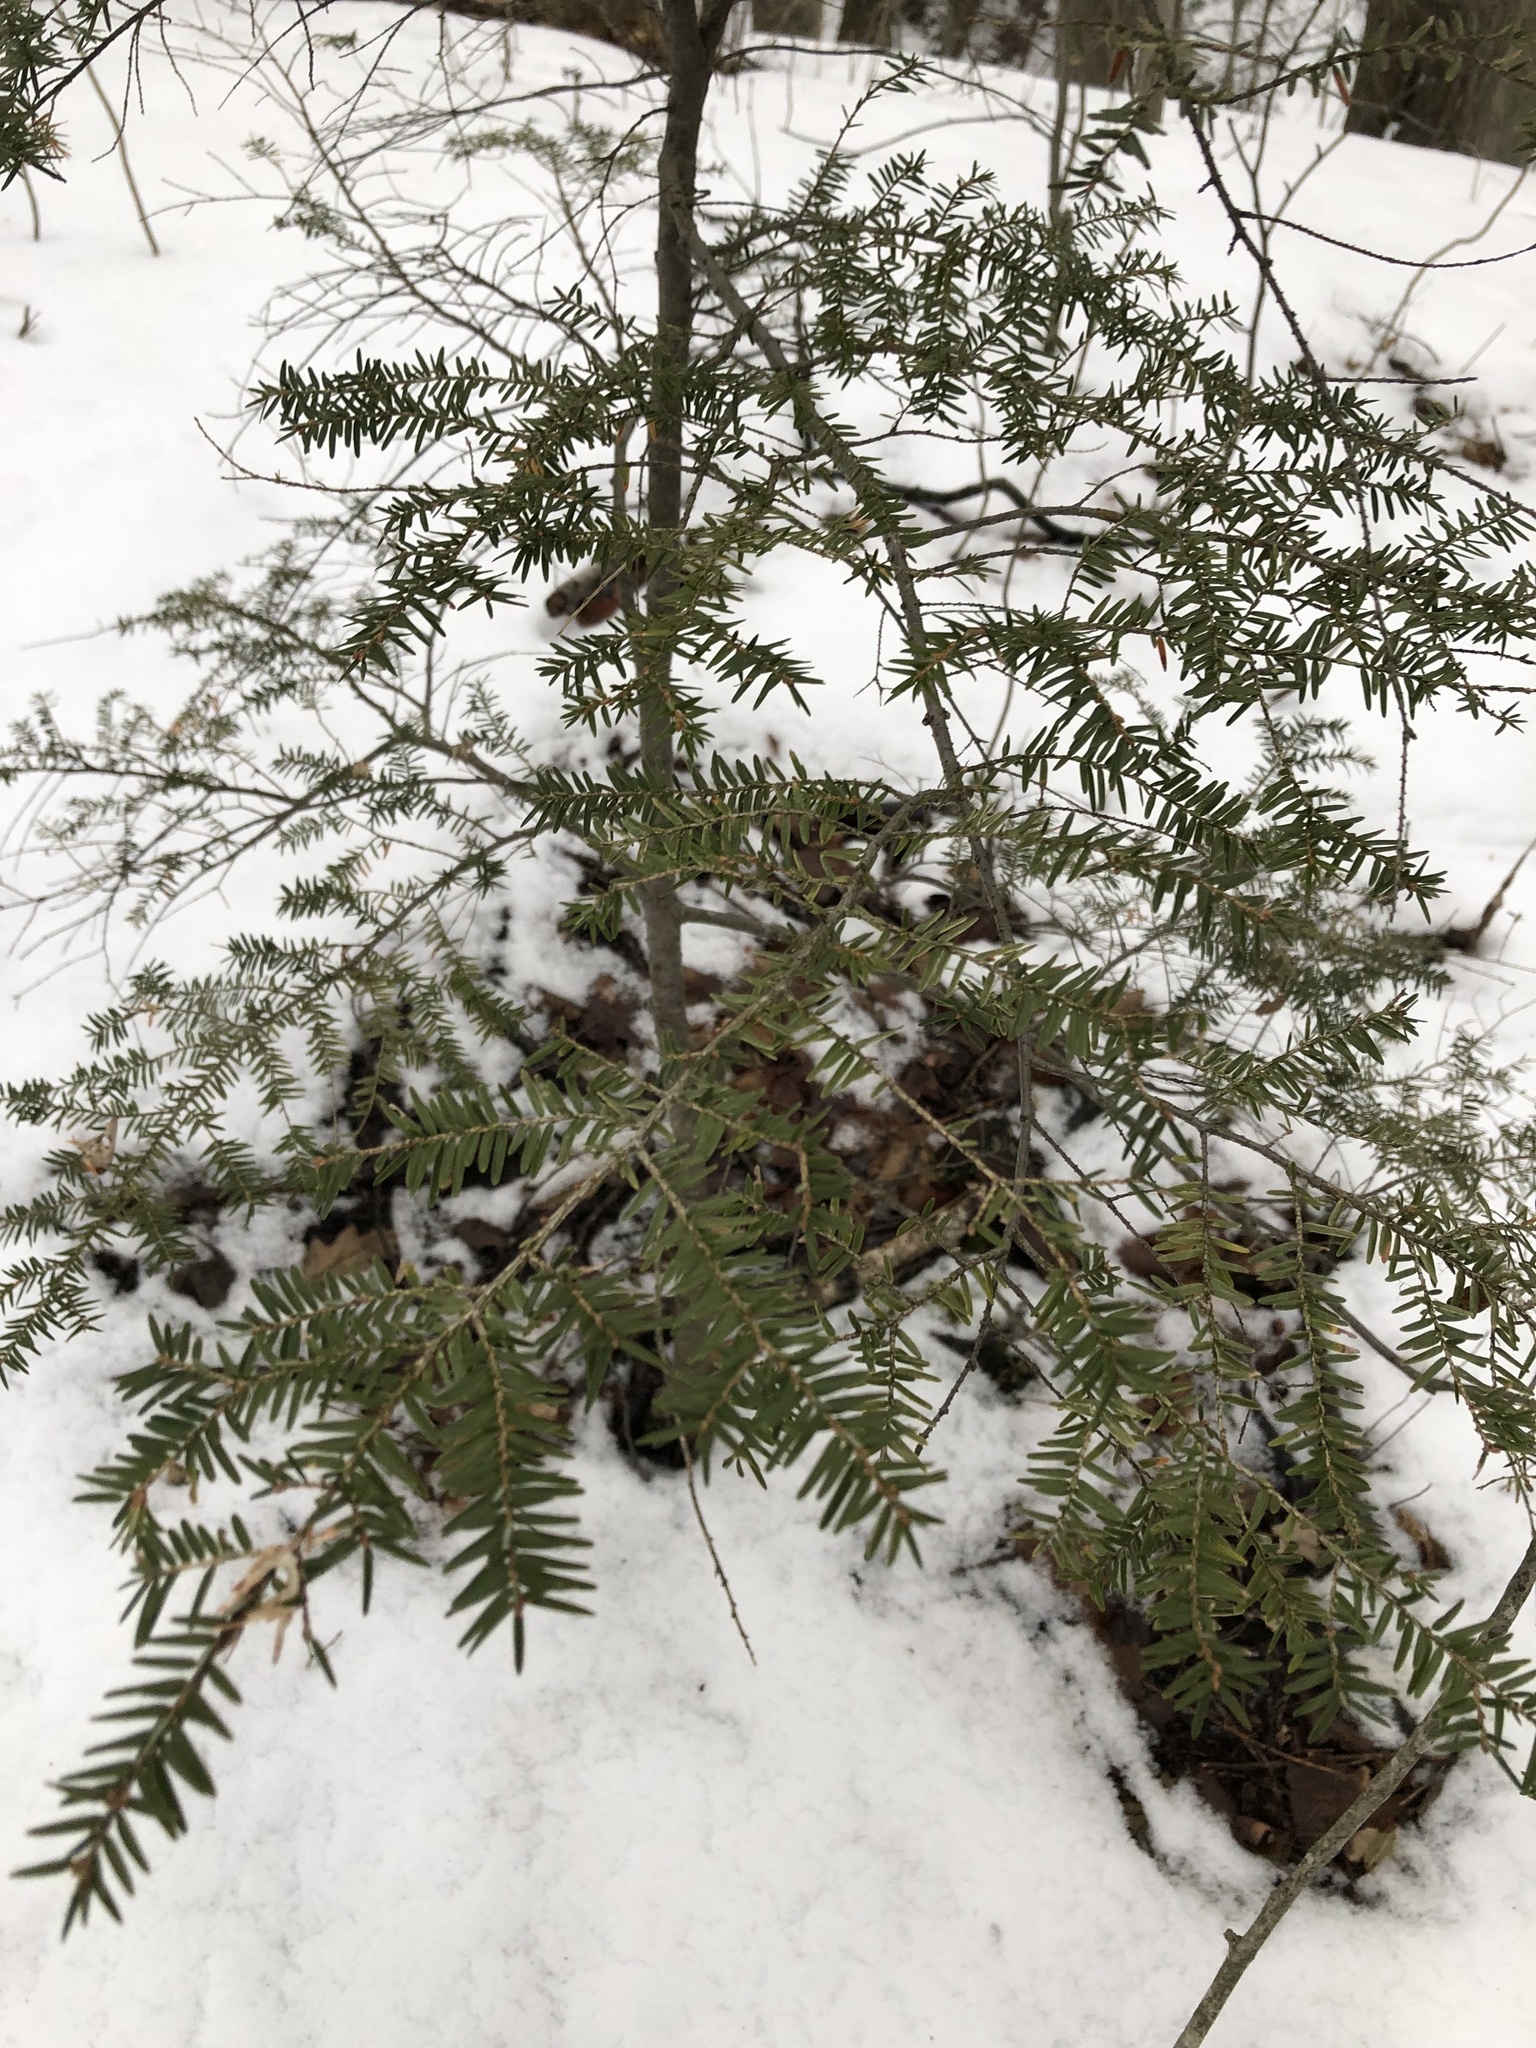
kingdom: Plantae
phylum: Tracheophyta
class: Pinopsida
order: Pinales
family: Pinaceae
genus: Tsuga
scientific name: Tsuga canadensis
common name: Eastern hemlock
